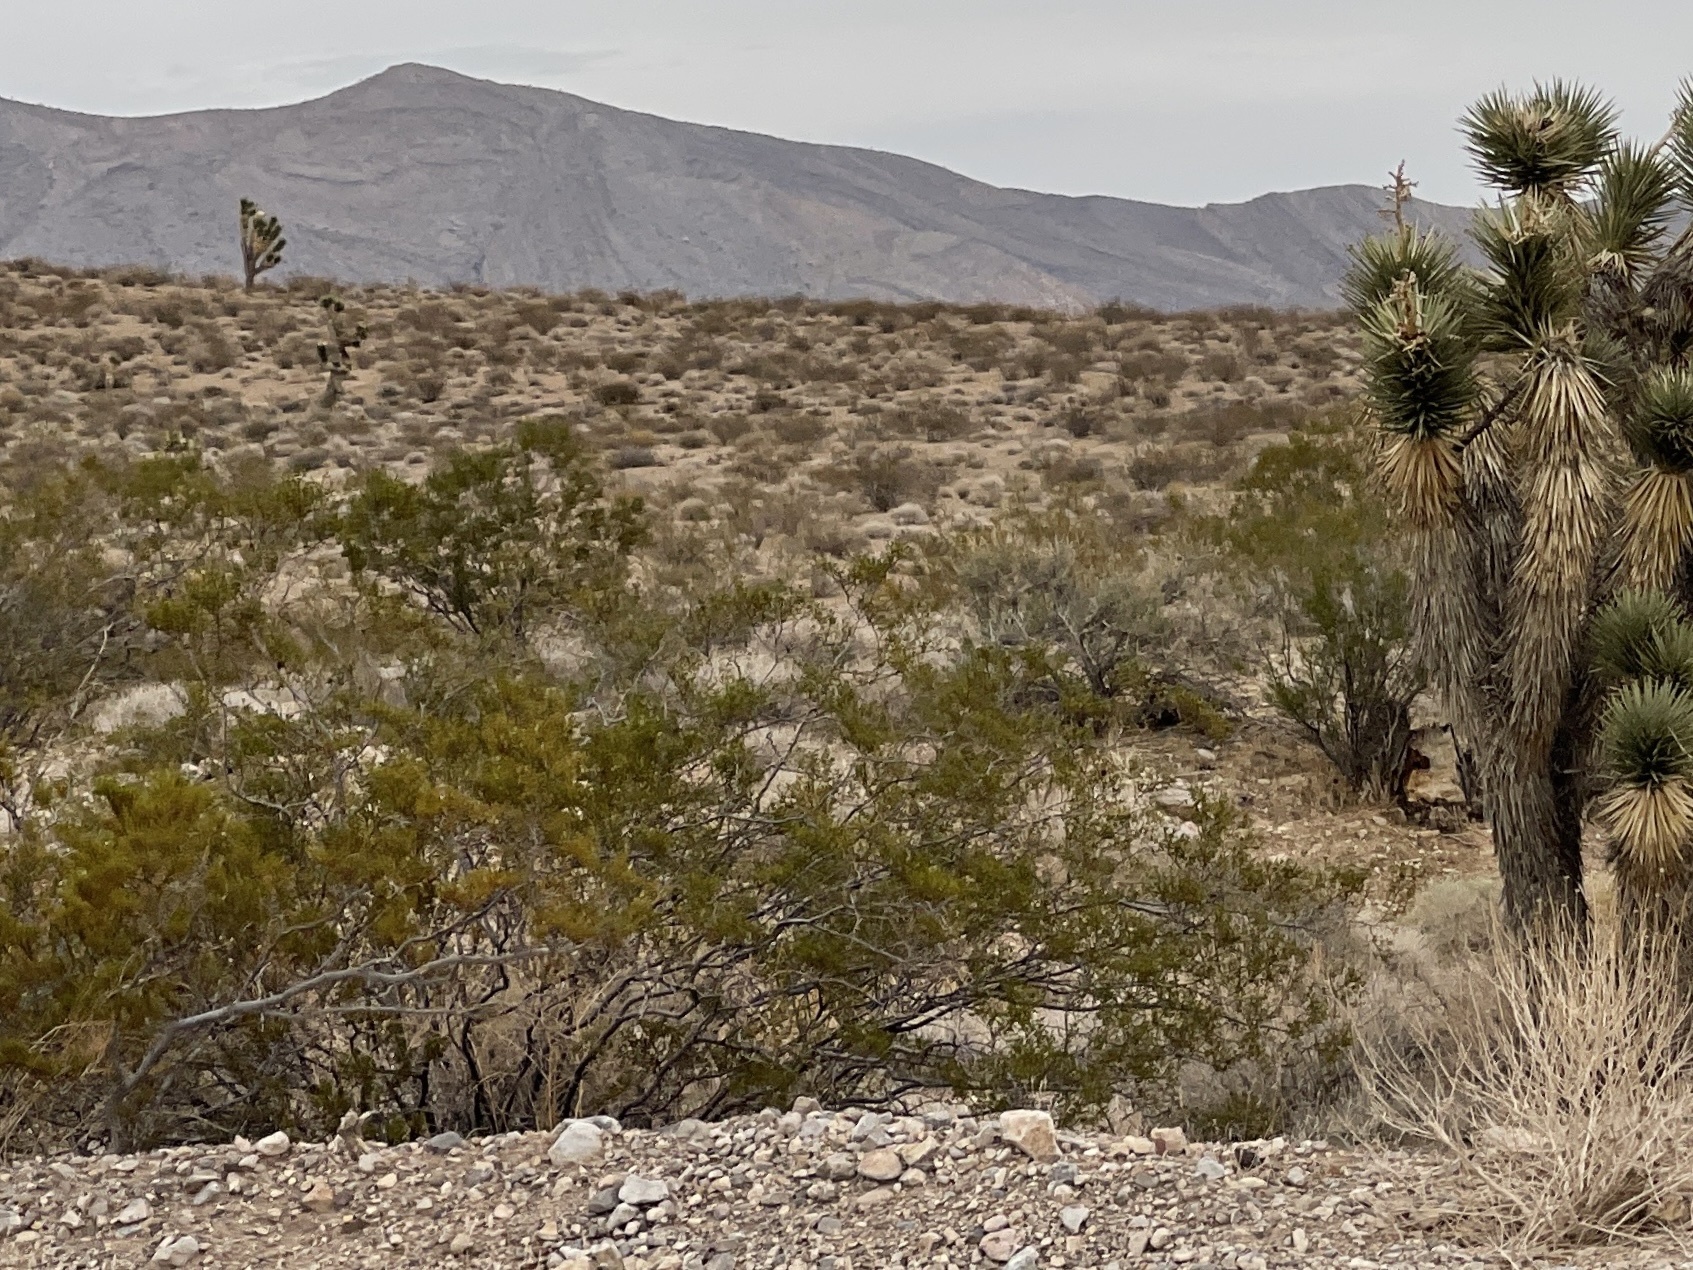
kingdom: Plantae
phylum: Tracheophyta
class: Magnoliopsida
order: Zygophyllales
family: Zygophyllaceae
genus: Larrea
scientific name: Larrea tridentata
